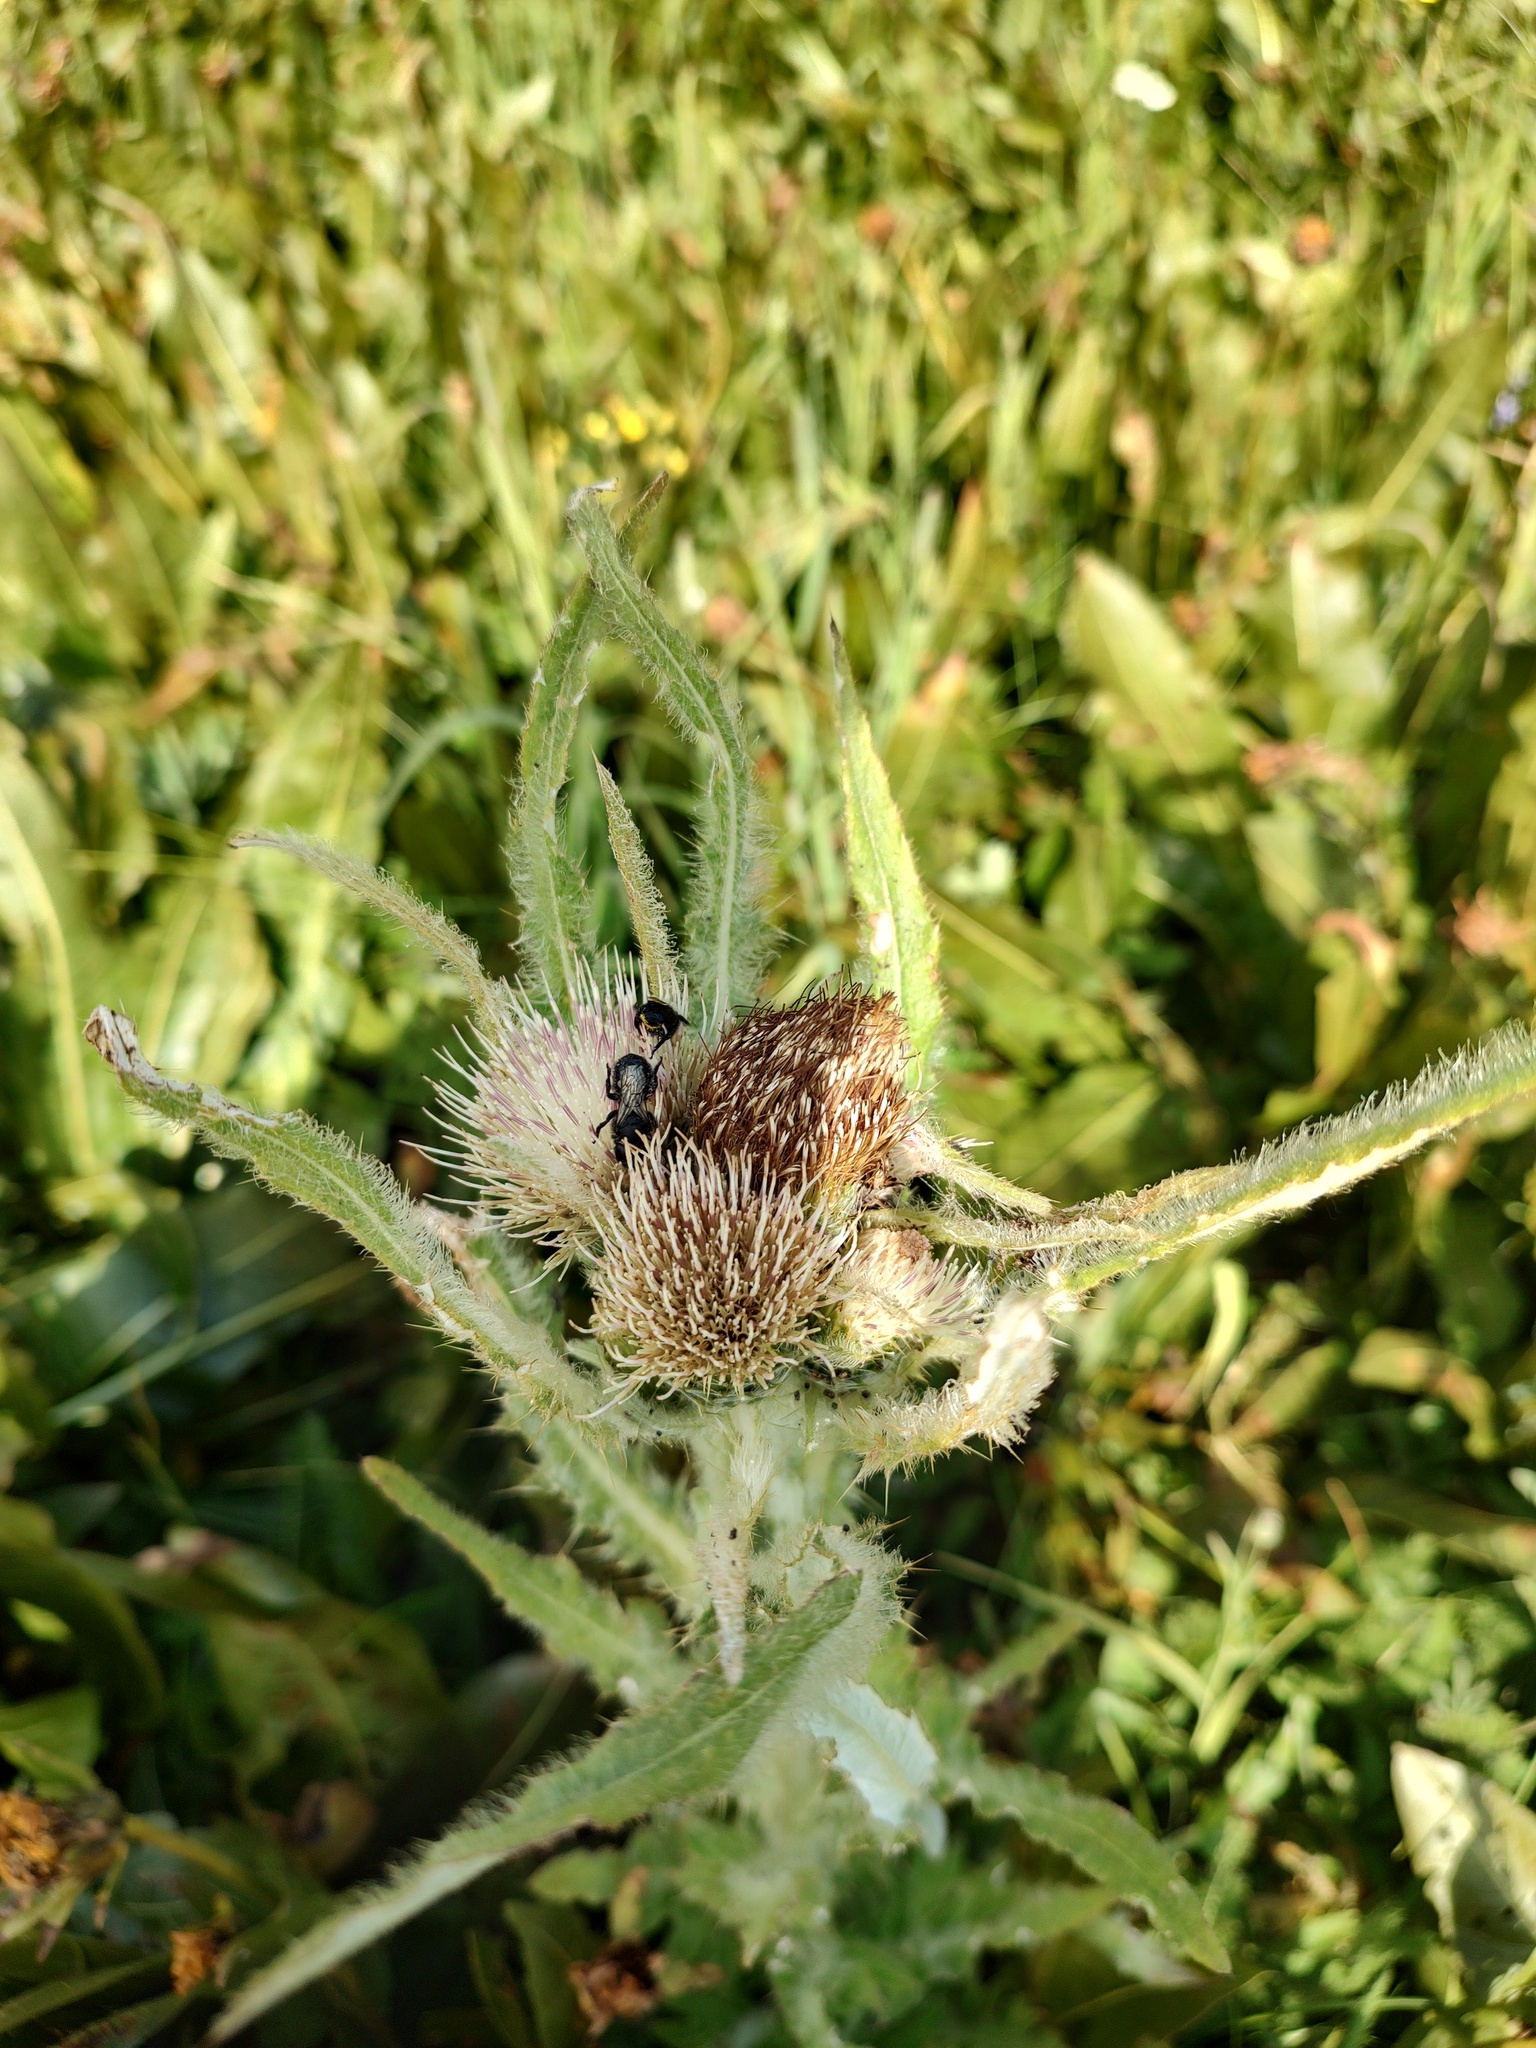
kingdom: Plantae
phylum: Tracheophyta
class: Magnoliopsida
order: Asterales
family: Asteraceae
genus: Cirsium
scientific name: Cirsium scariosum
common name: Meadow thistle
